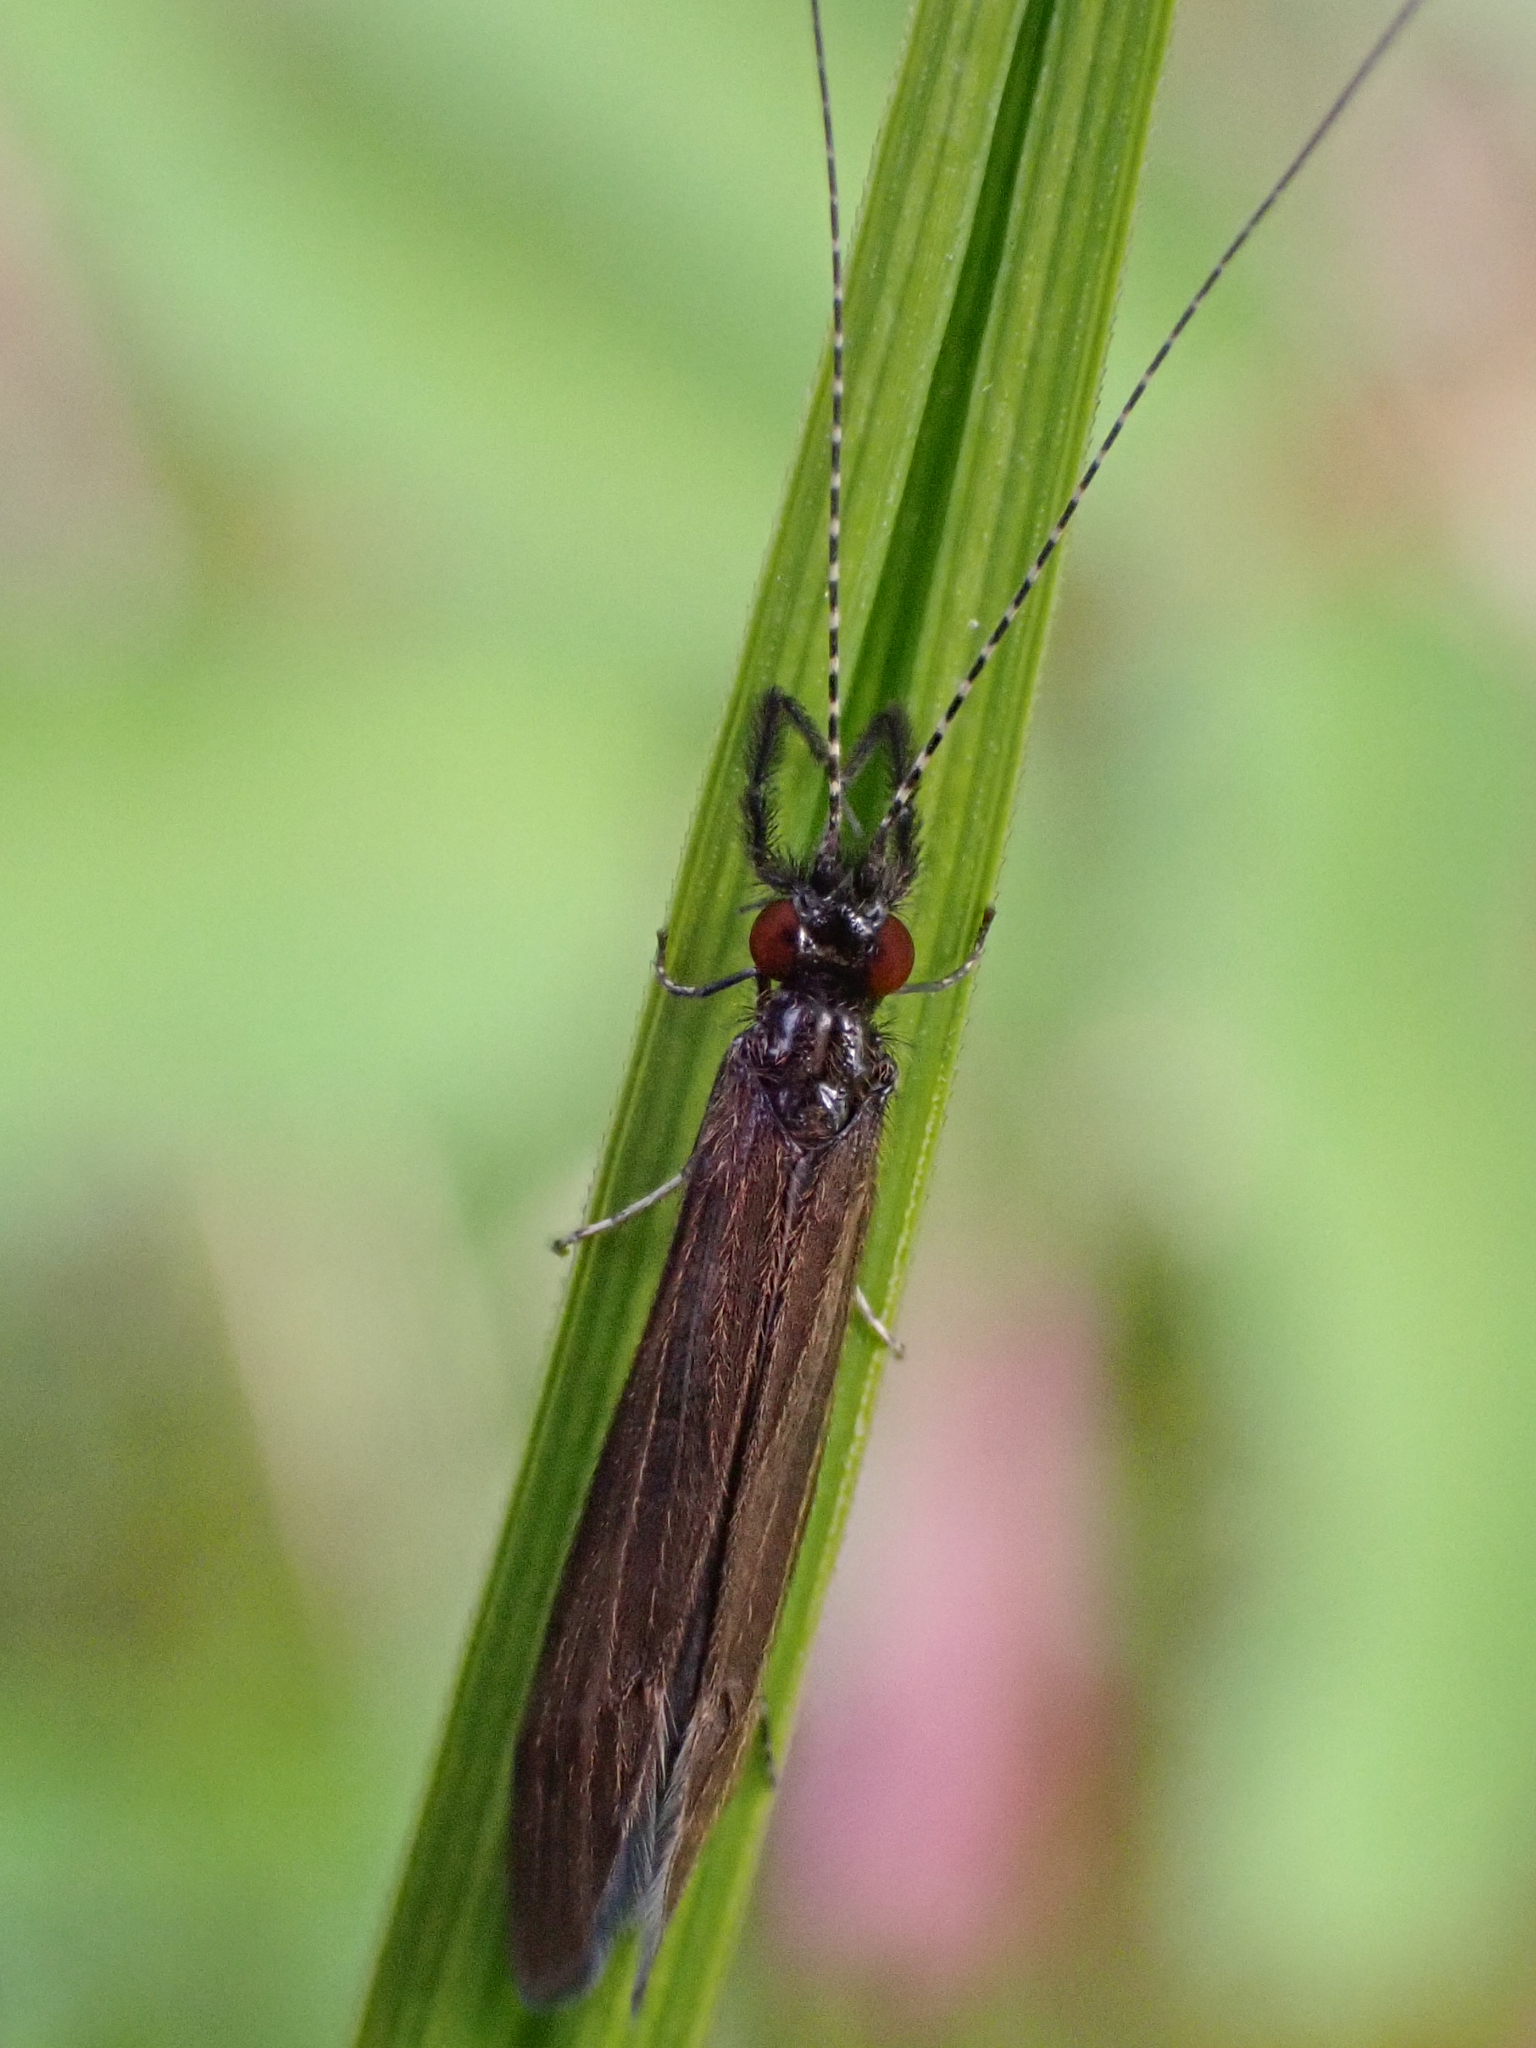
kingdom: Animalia
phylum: Arthropoda
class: Insecta
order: Trichoptera
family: Leptoceridae
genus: Mystacides
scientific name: Mystacides alafimbriatus
